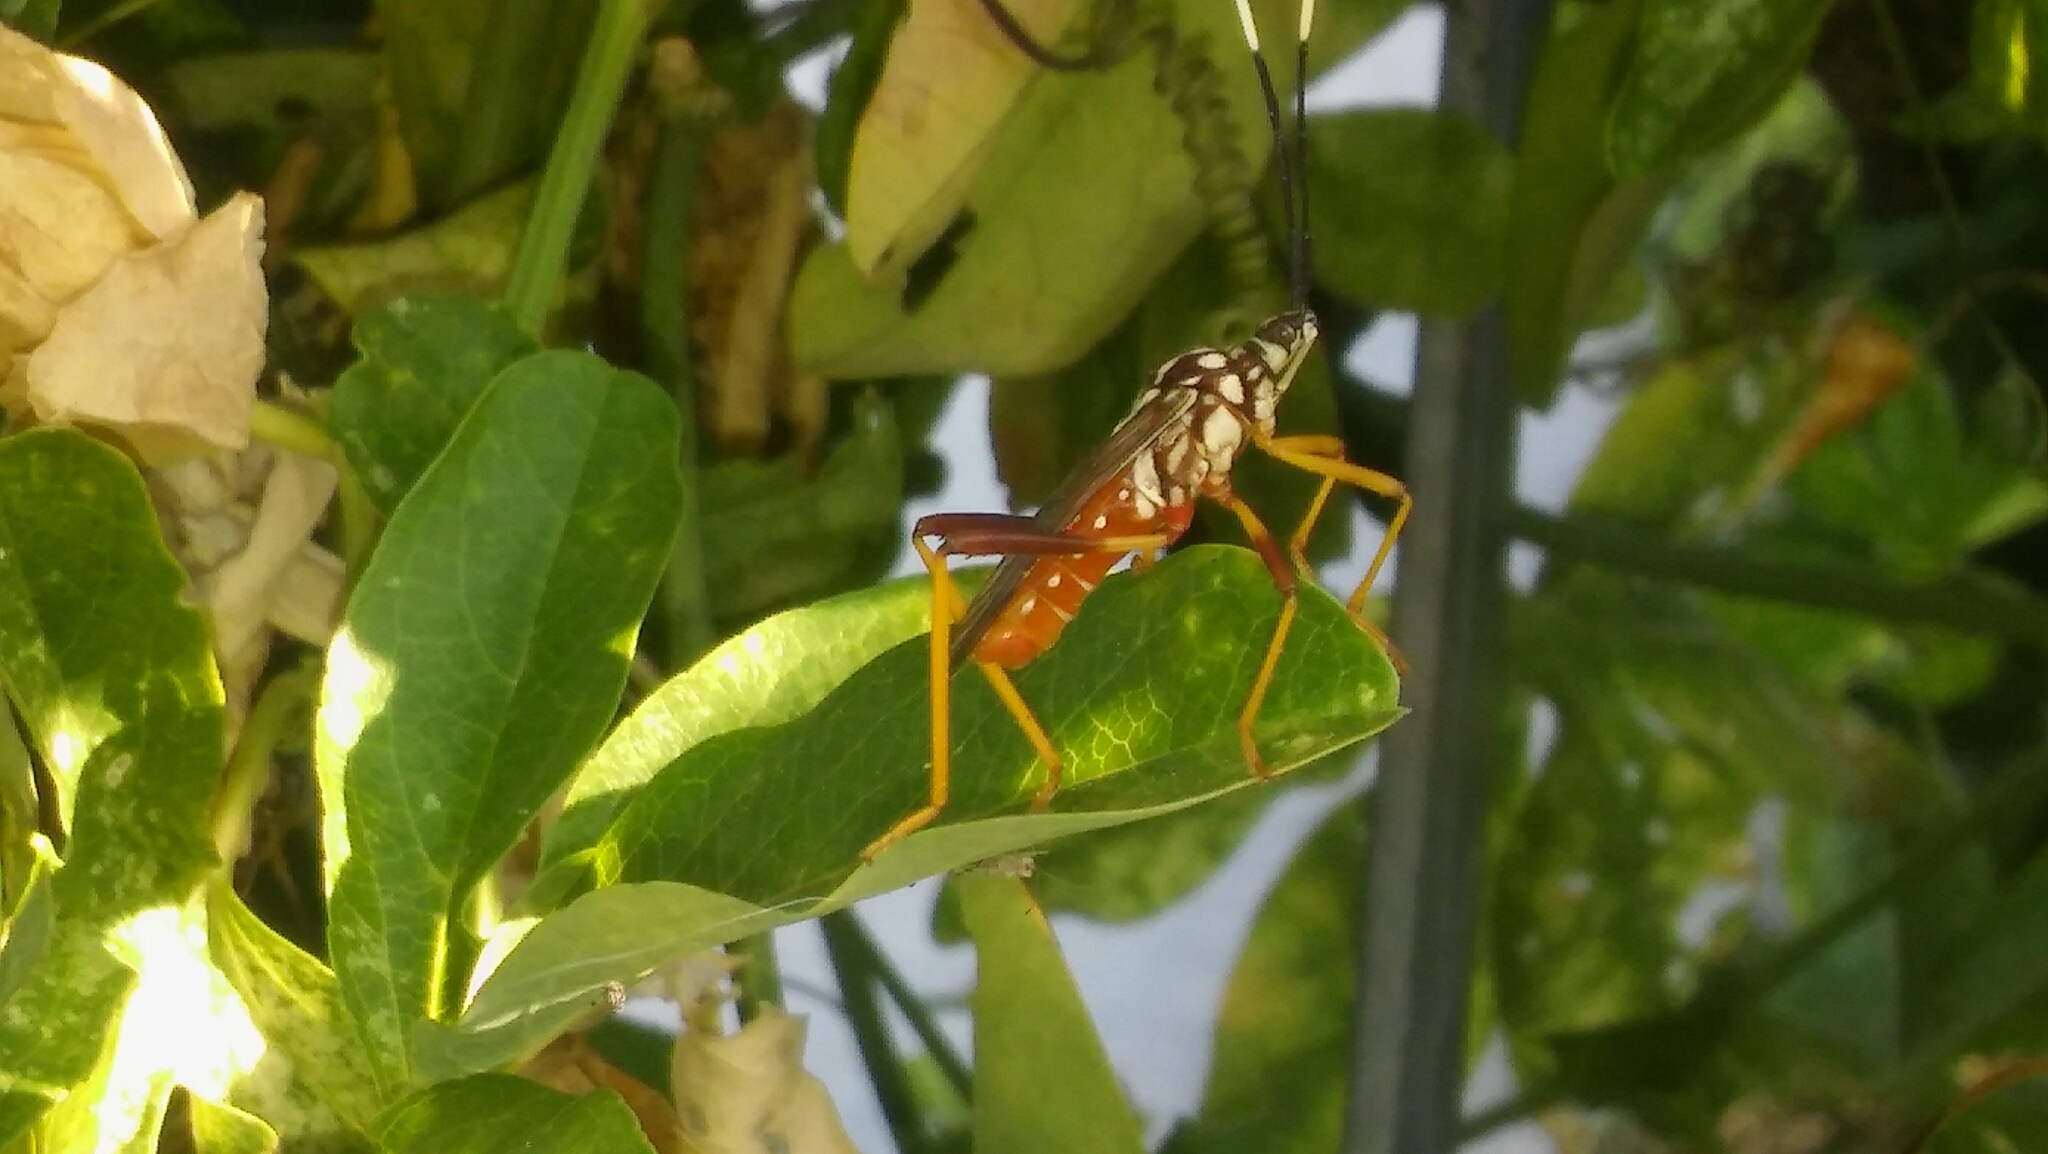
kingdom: Animalia
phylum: Arthropoda
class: Insecta
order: Hemiptera
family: Coreidae
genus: Holhymenia
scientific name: Holhymenia histrio
